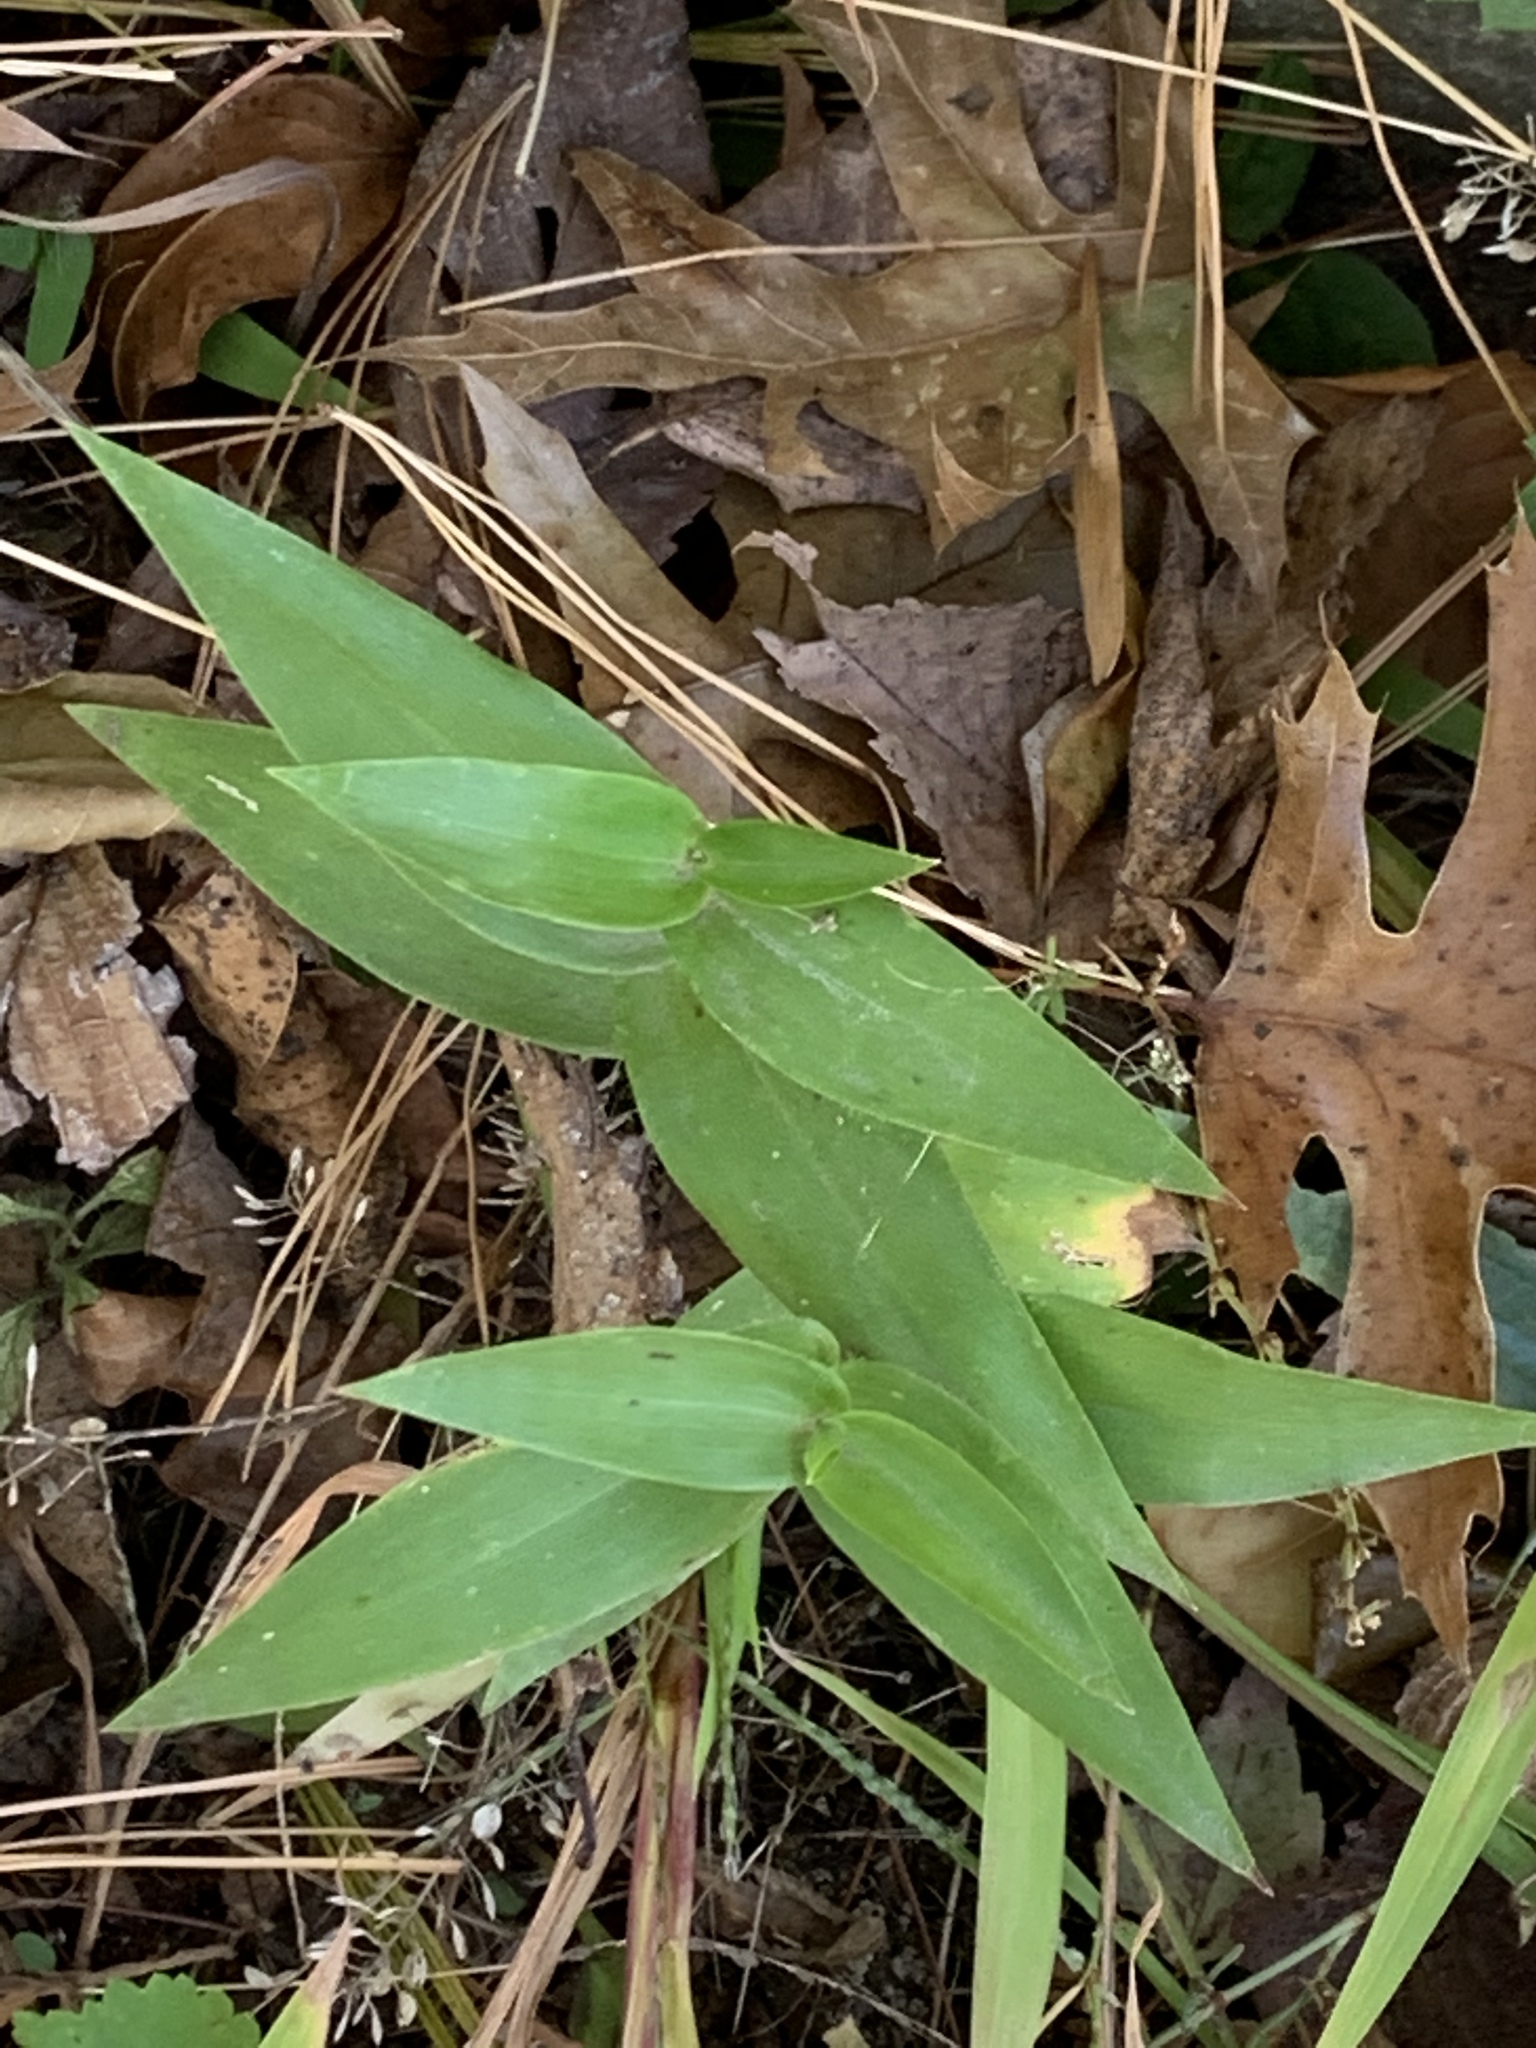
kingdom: Plantae
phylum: Tracheophyta
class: Liliopsida
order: Poales
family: Poaceae
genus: Dichanthelium
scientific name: Dichanthelium clandestinum
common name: Deer-tongue grass
